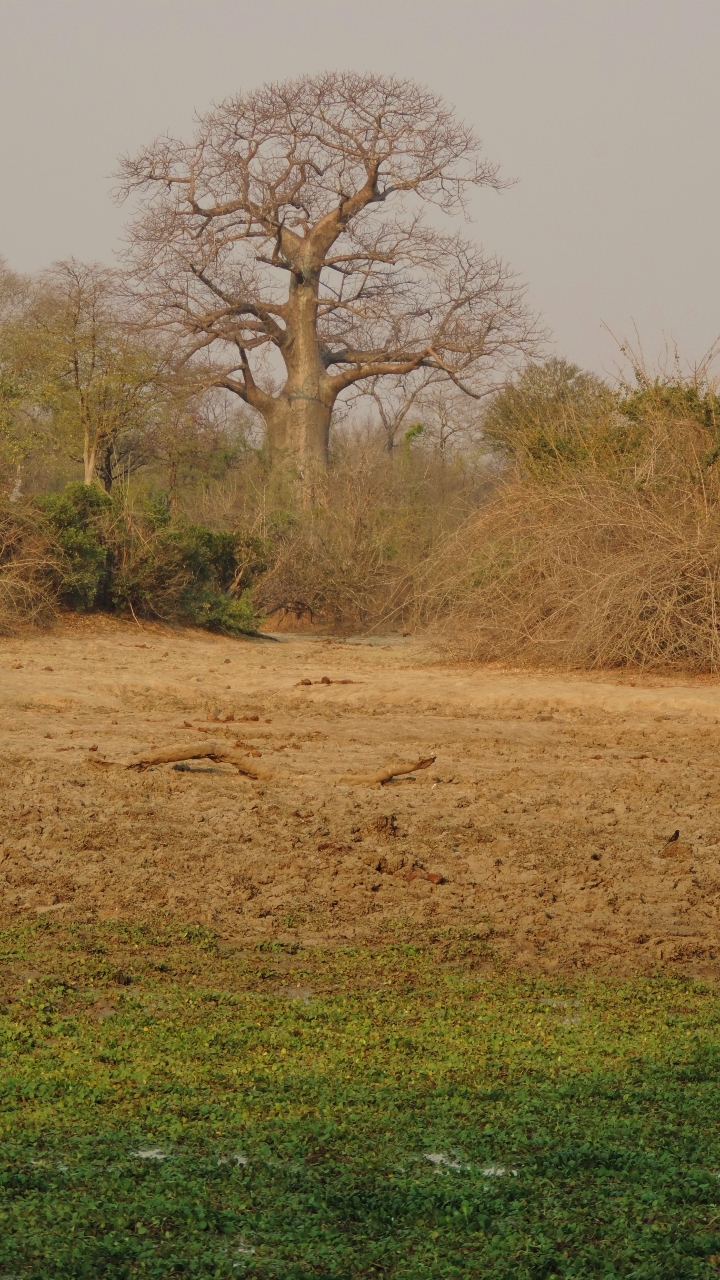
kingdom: Plantae
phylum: Tracheophyta
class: Magnoliopsida
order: Malvales
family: Malvaceae
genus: Adansonia
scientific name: Adansonia digitata
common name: Dead-rat-tree
